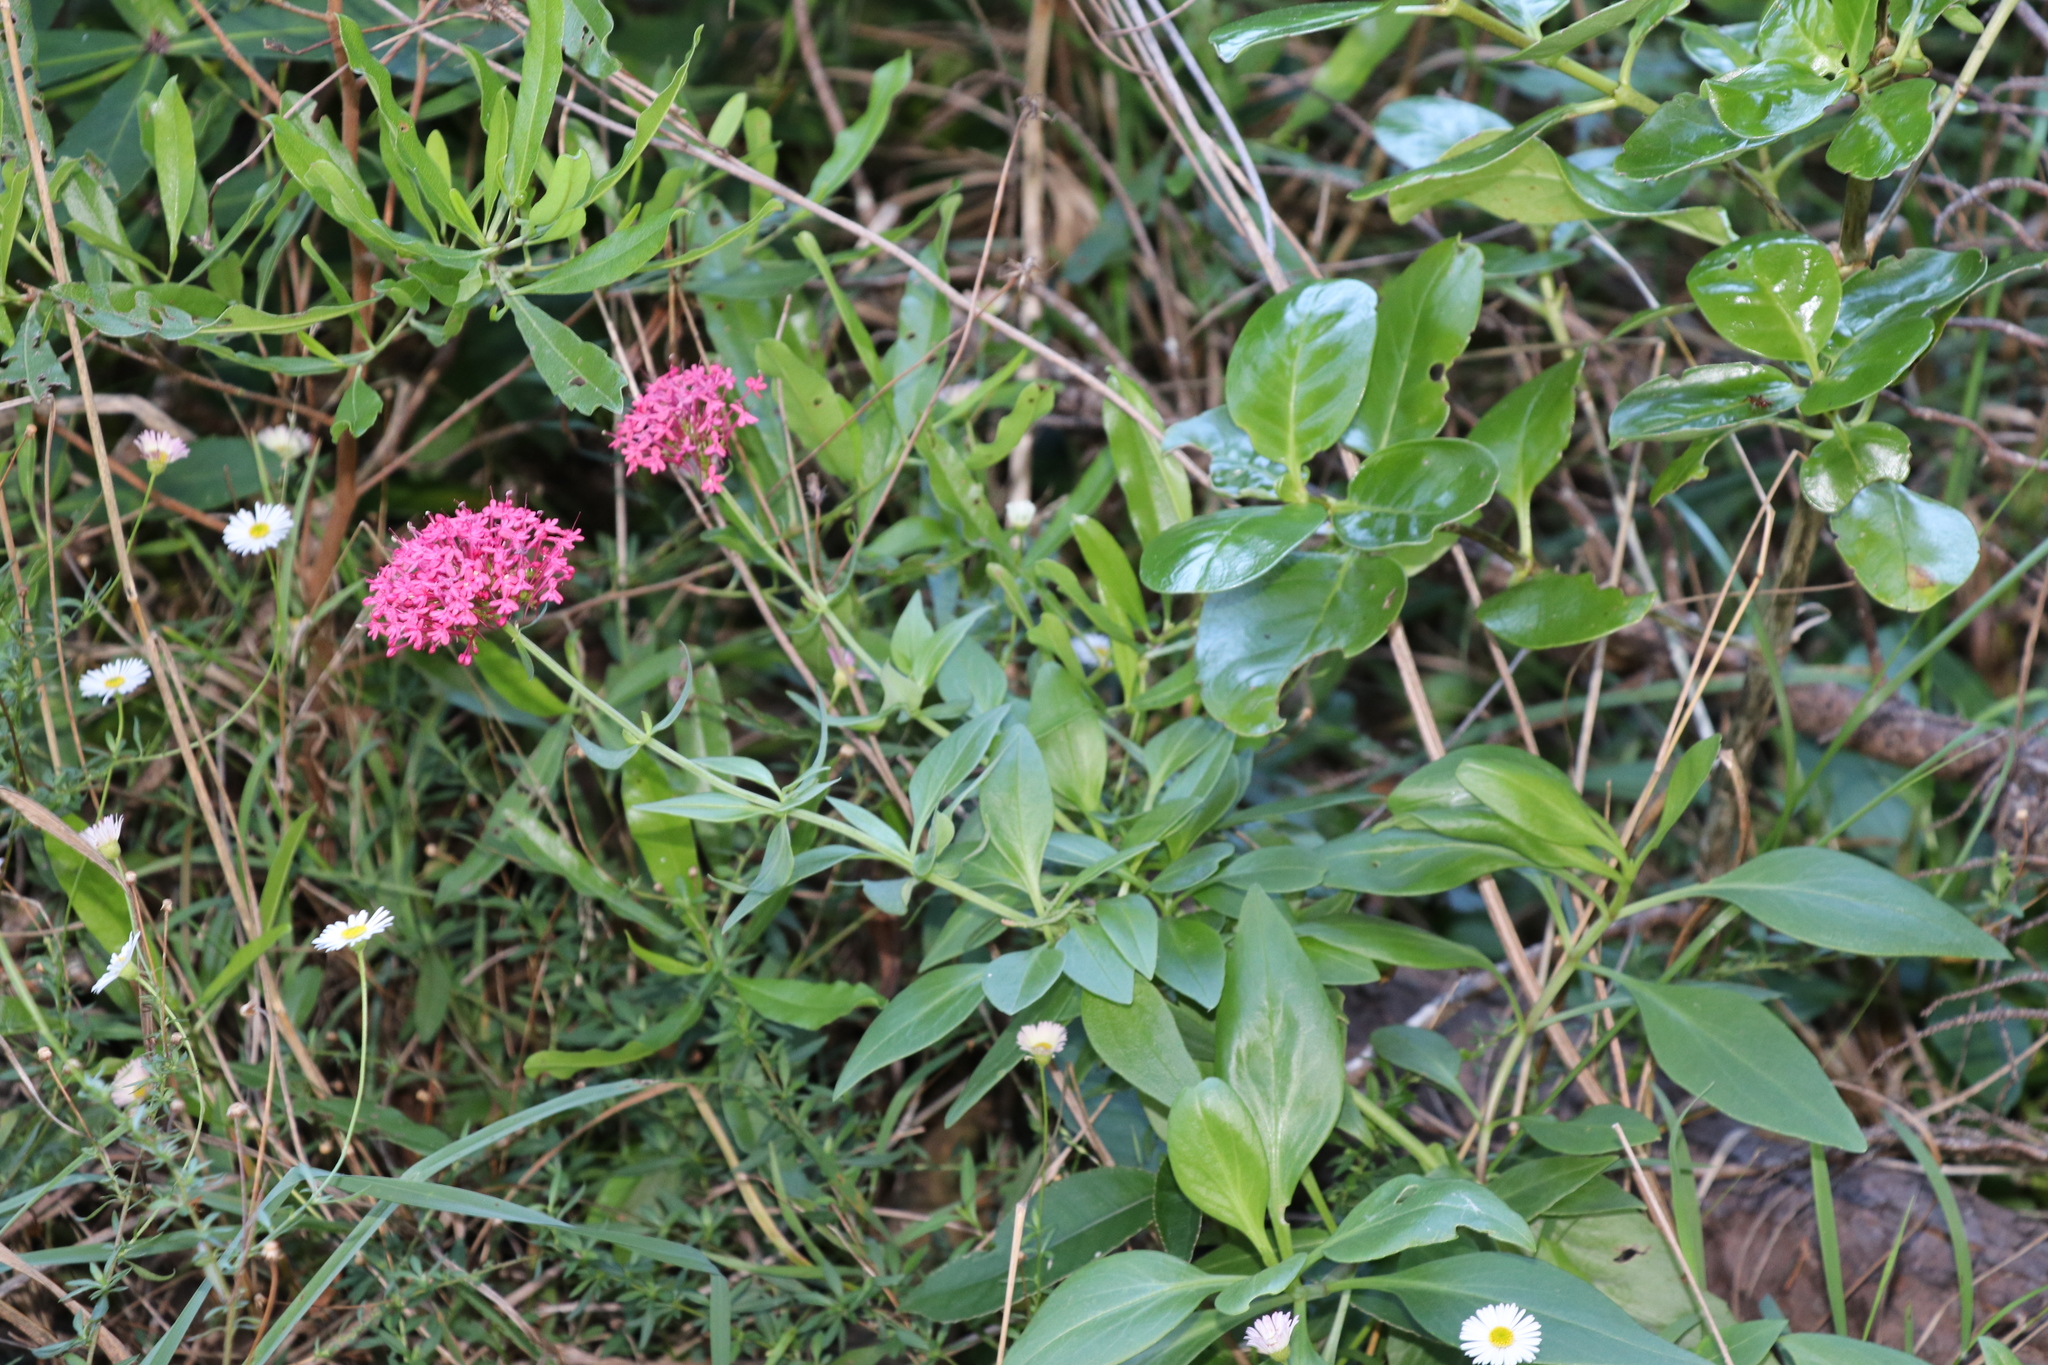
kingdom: Plantae
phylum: Tracheophyta
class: Magnoliopsida
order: Dipsacales
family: Caprifoliaceae
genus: Centranthus
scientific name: Centranthus ruber
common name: Red valerian
